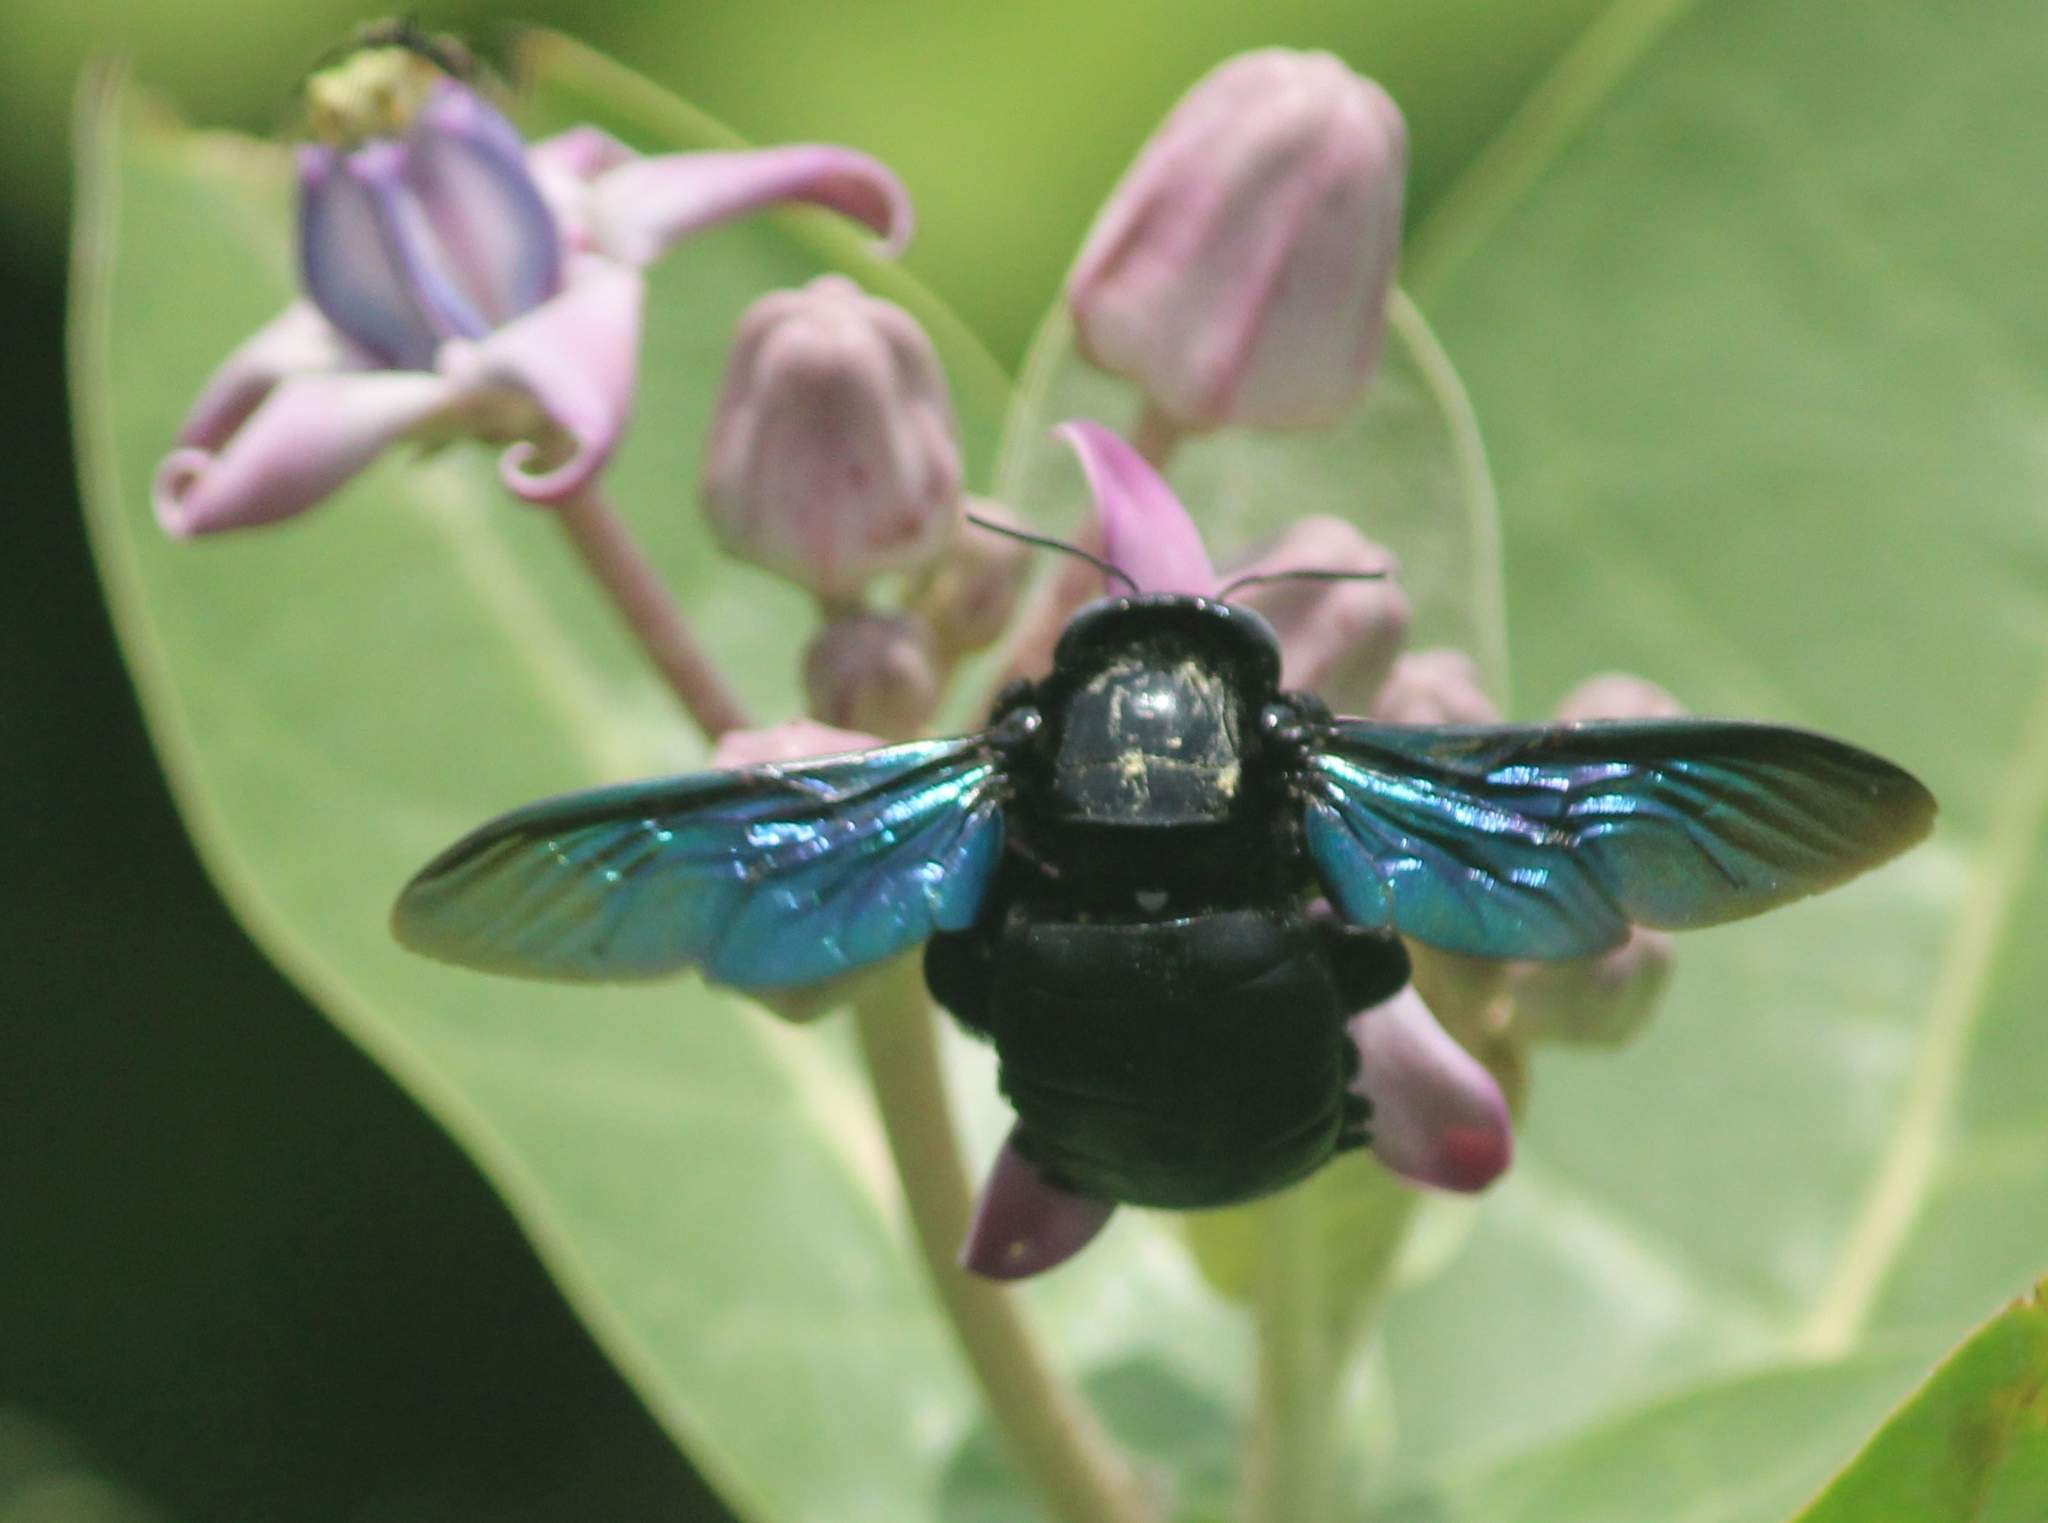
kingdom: Animalia
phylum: Arthropoda
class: Insecta
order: Hymenoptera
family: Apidae
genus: Xylocopa
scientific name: Xylocopa tenuiscapa
